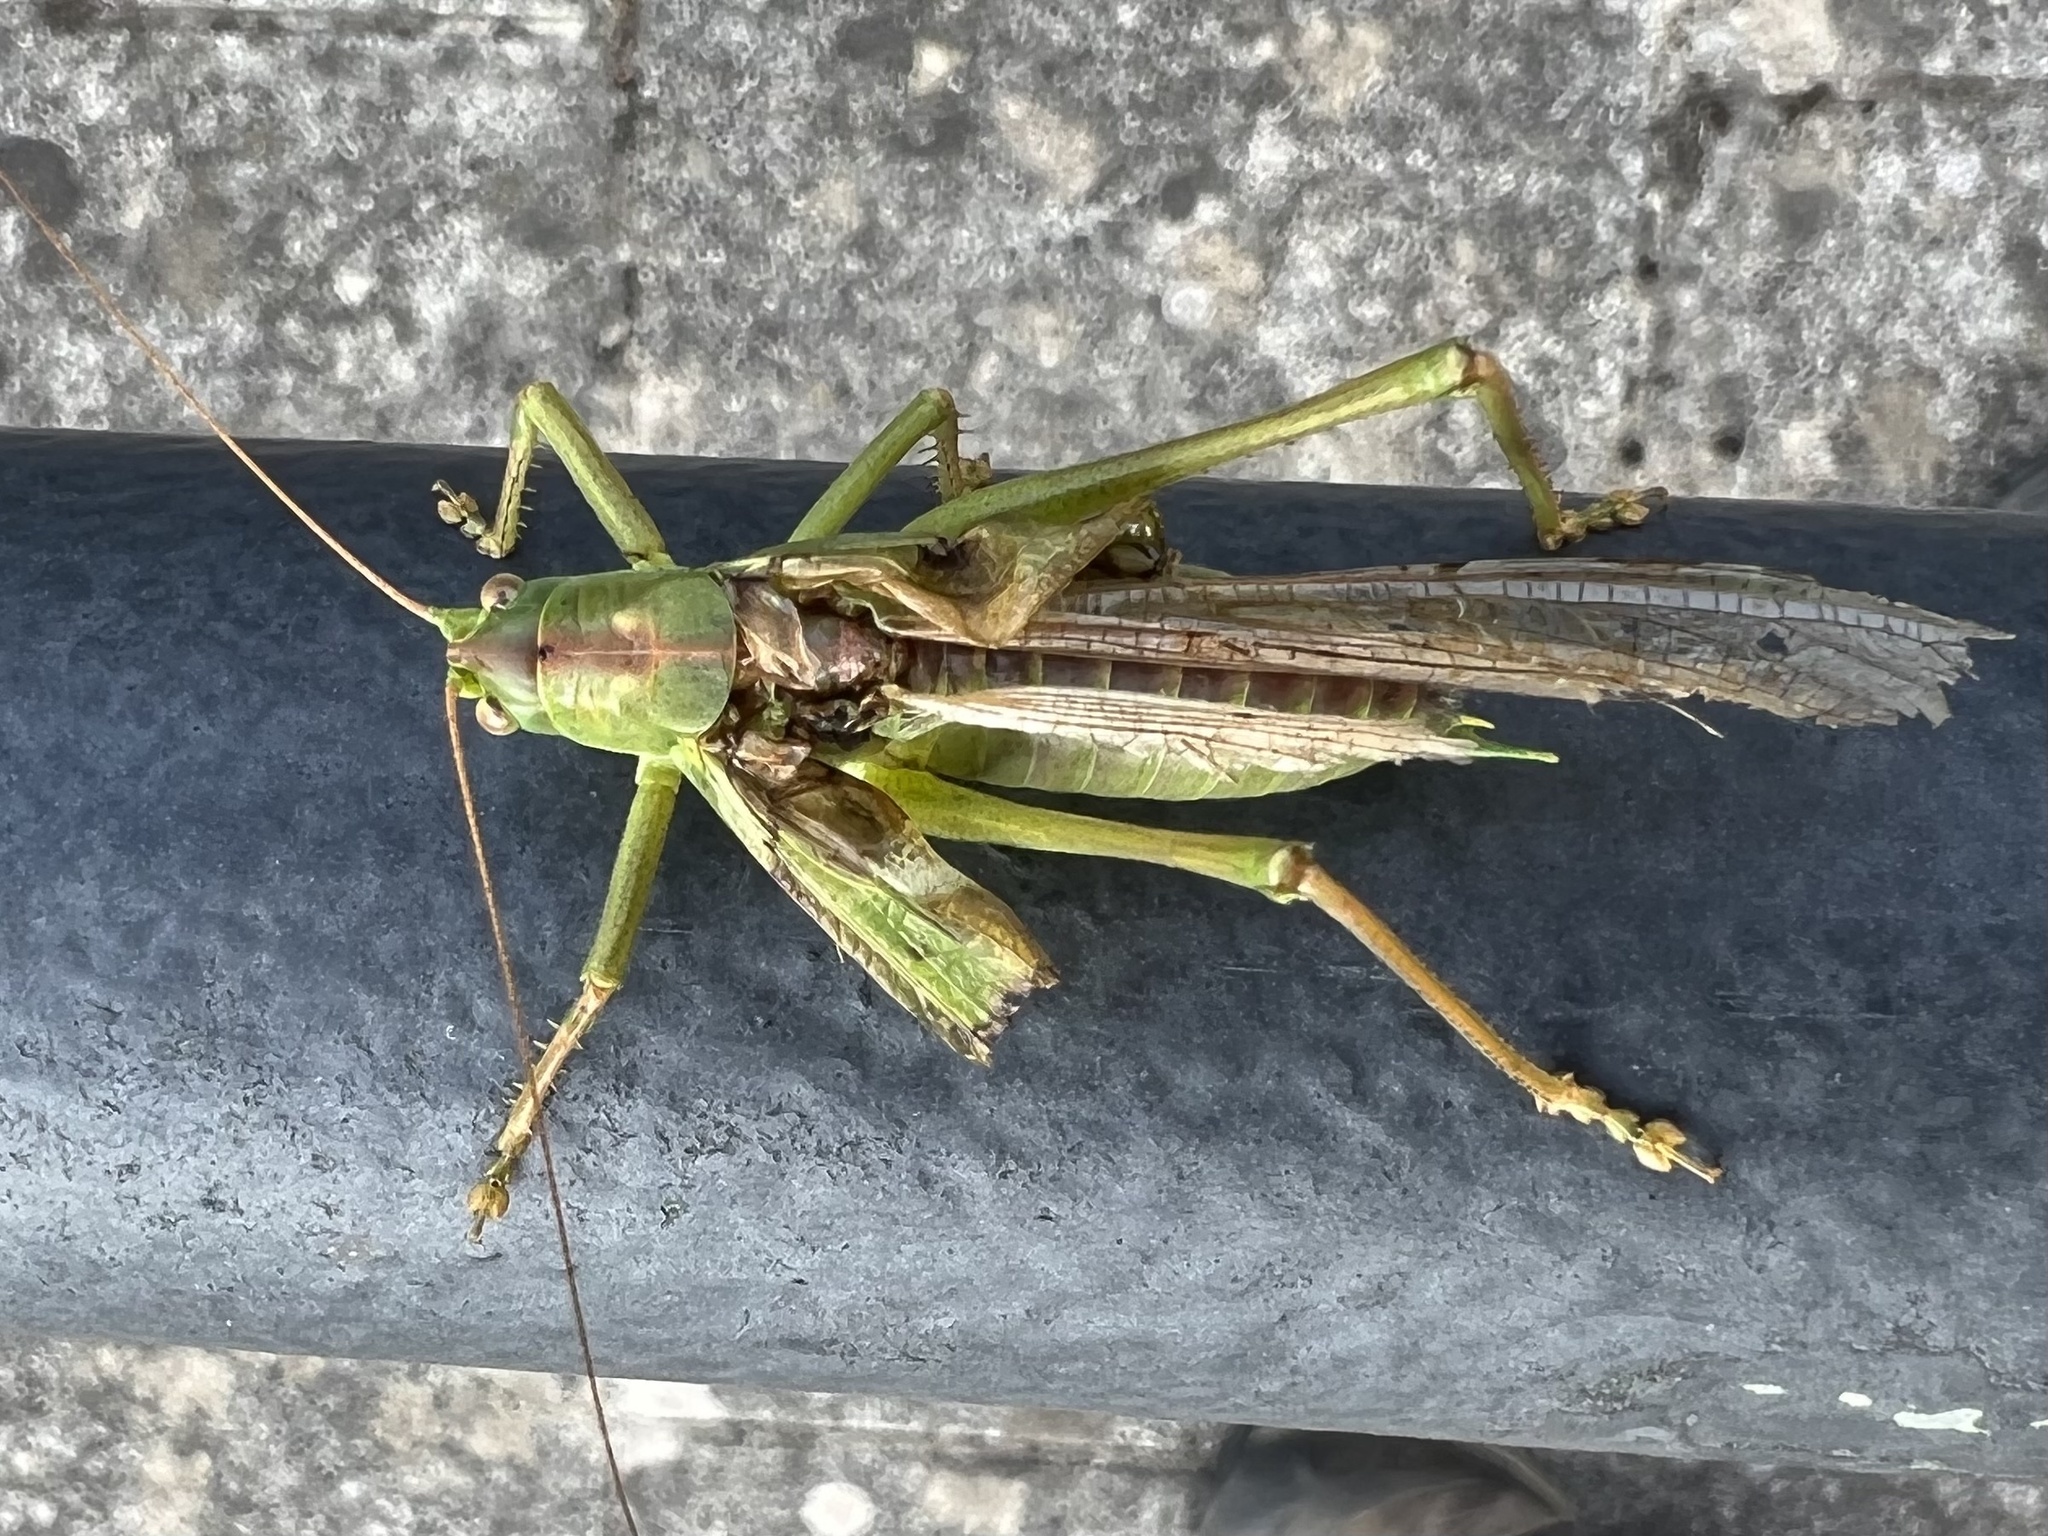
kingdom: Animalia
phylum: Arthropoda
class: Insecta
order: Orthoptera
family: Tettigoniidae
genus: Tettigonia
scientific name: Tettigonia viridissima
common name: Great green bush-cricket
